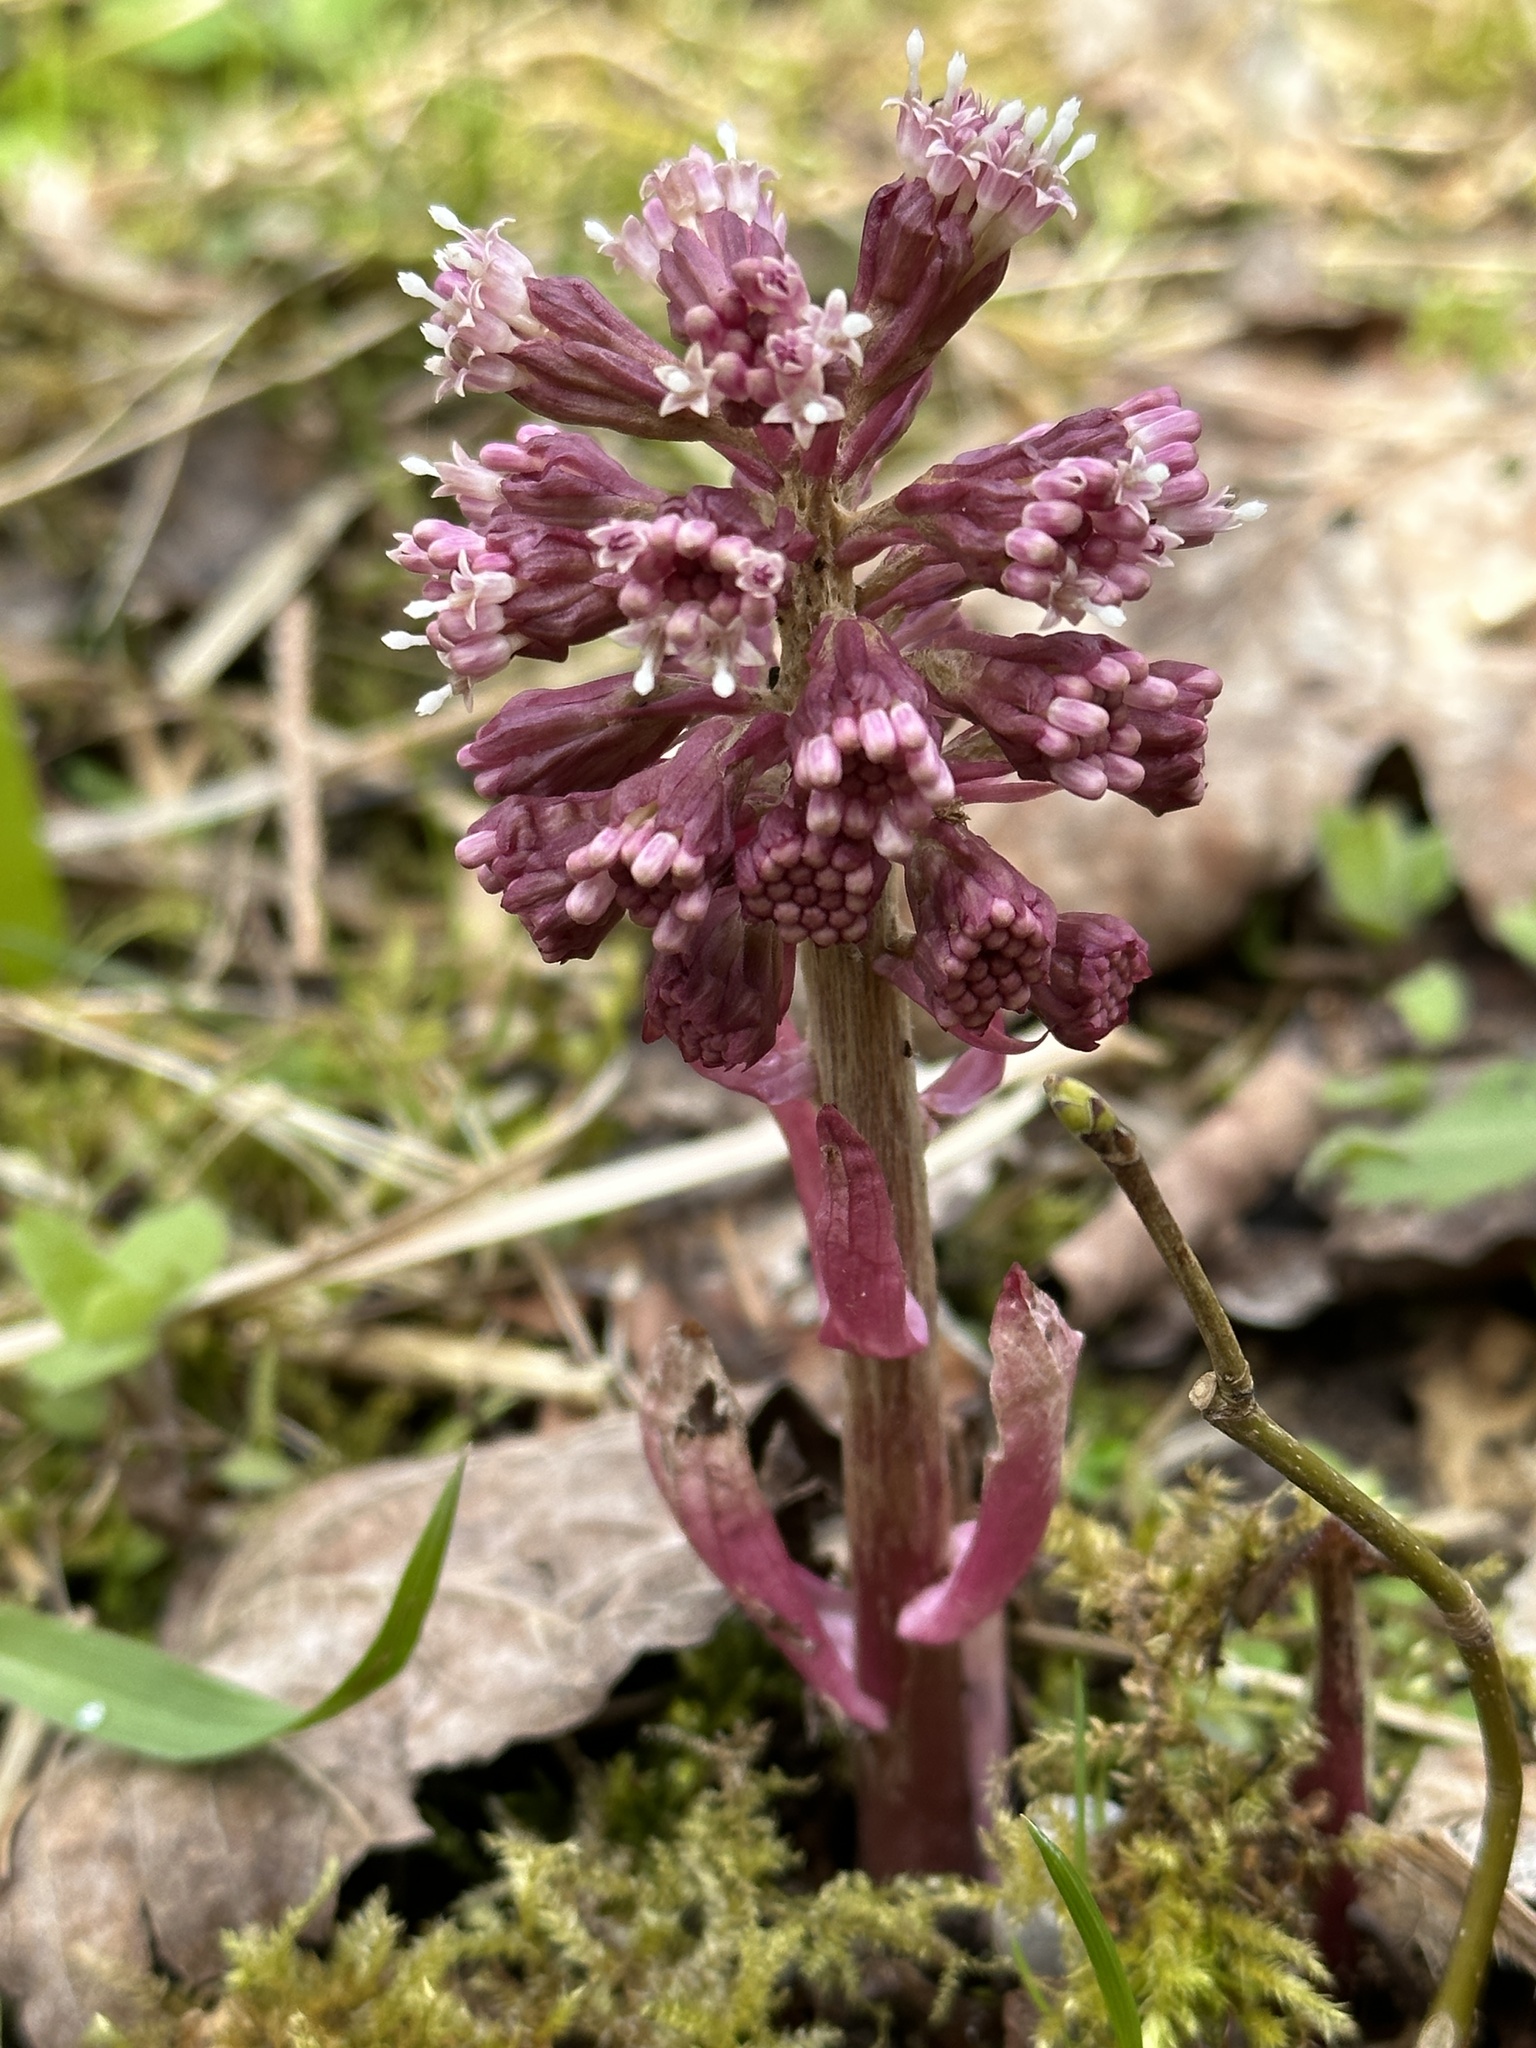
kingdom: Plantae
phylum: Tracheophyta
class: Magnoliopsida
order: Asterales
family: Asteraceae
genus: Petasites
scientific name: Petasites hybridus
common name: Butterbur
